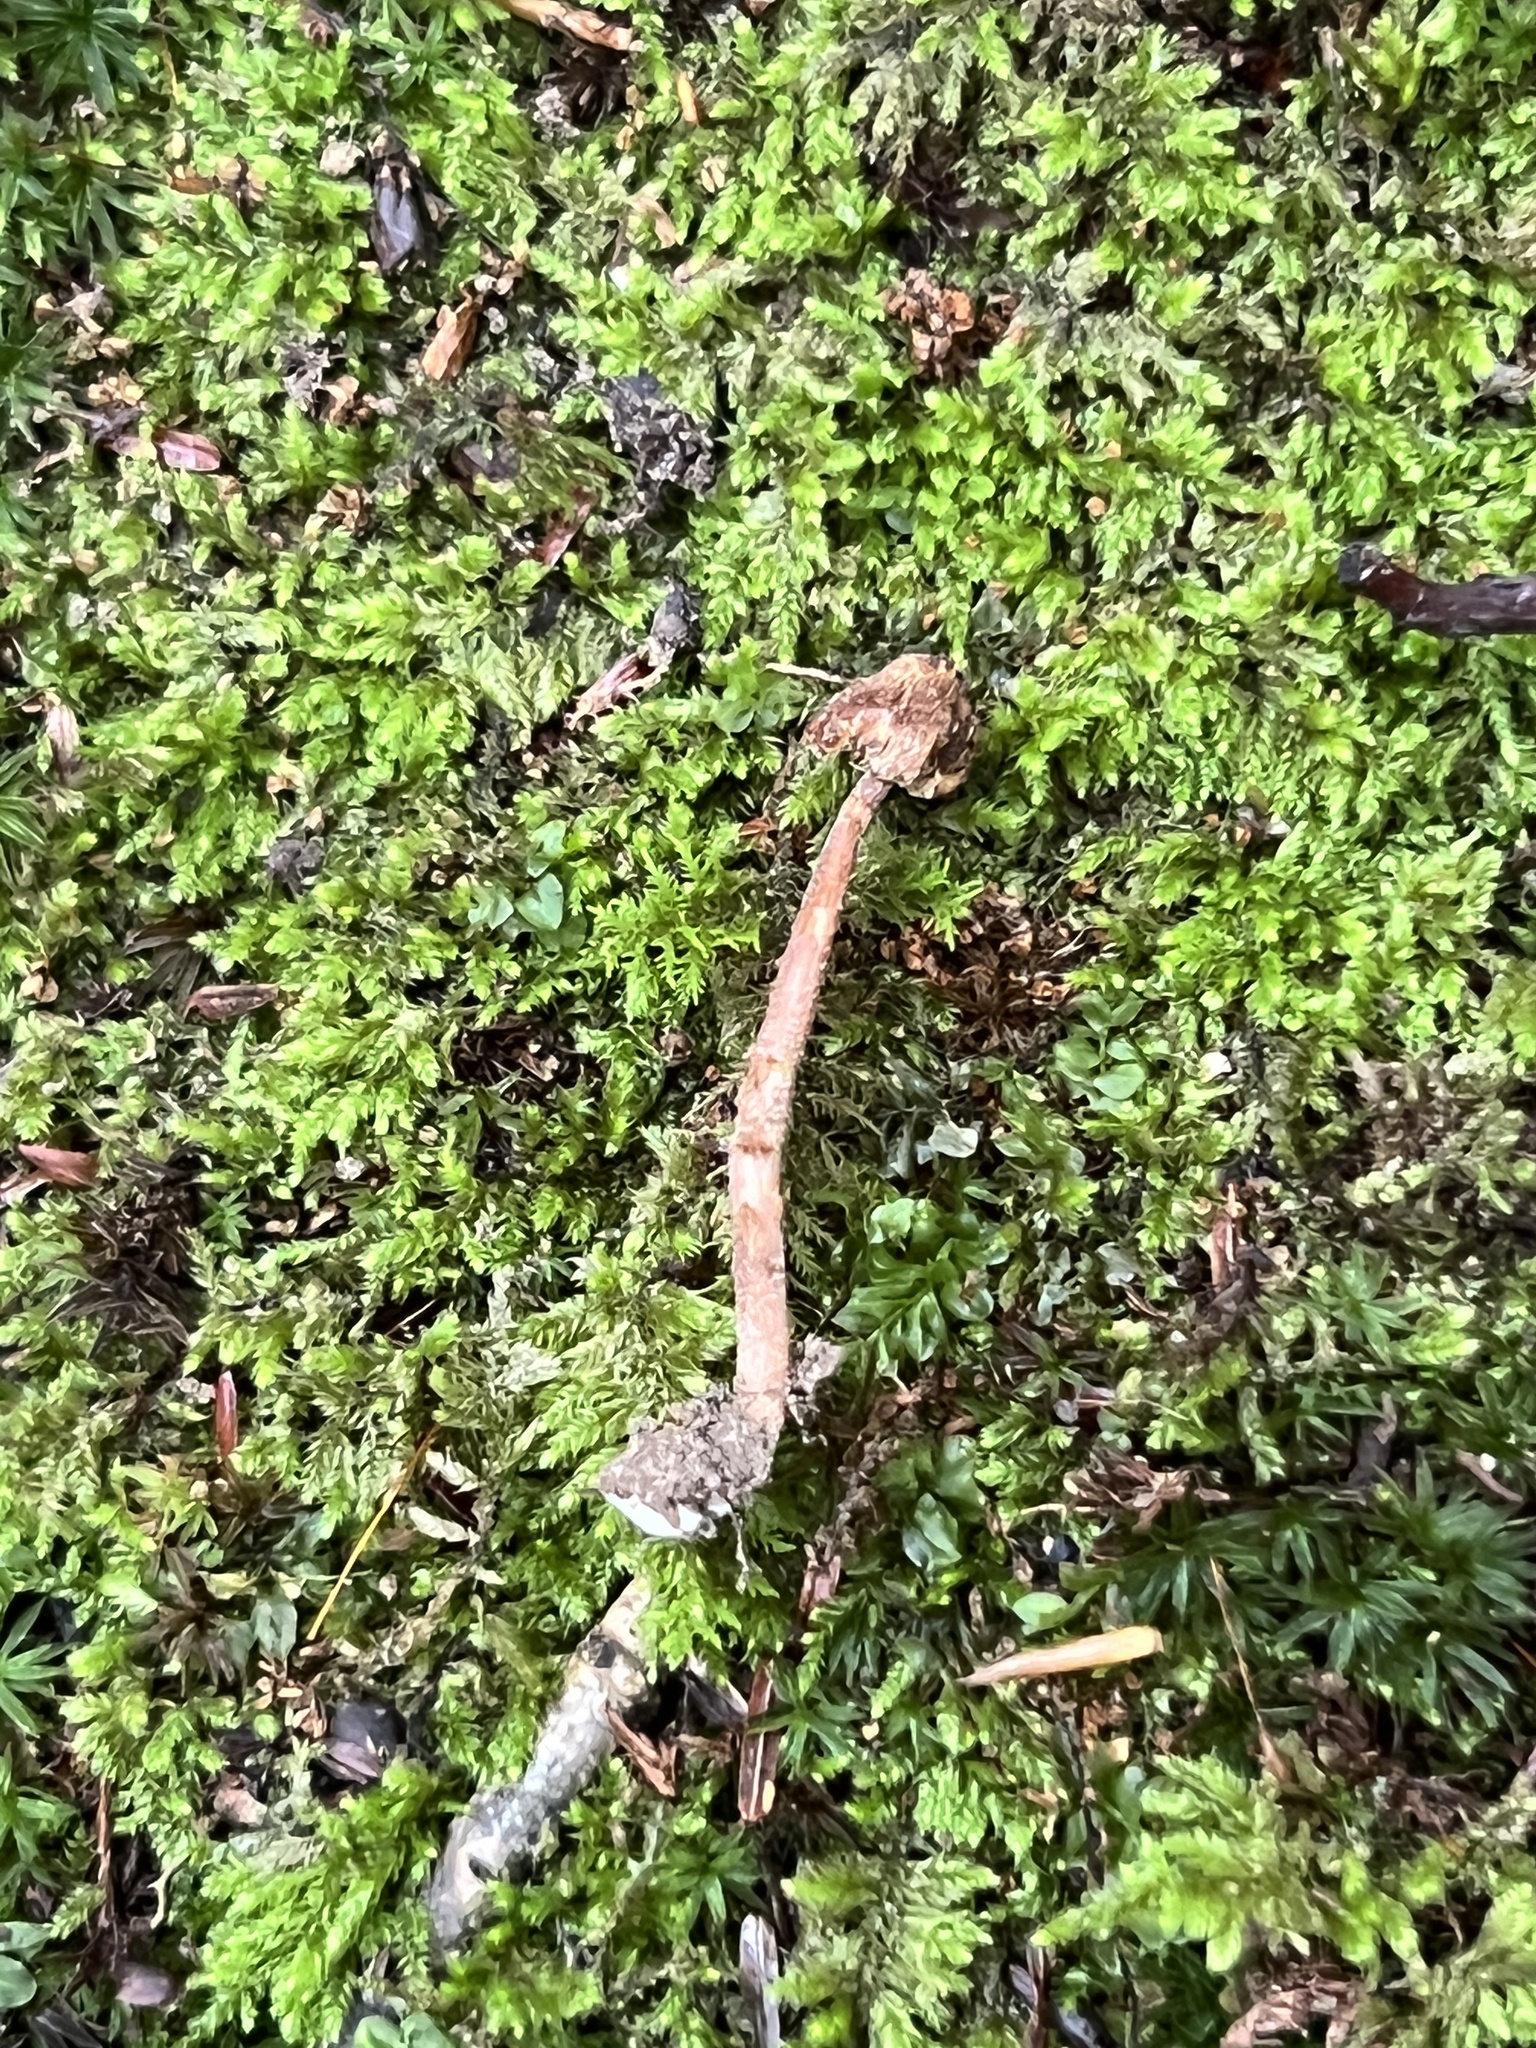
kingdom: Fungi
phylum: Basidiomycota
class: Agaricomycetes
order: Agaricales
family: Inocybaceae
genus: Inocybe
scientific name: Inocybe subfulva
